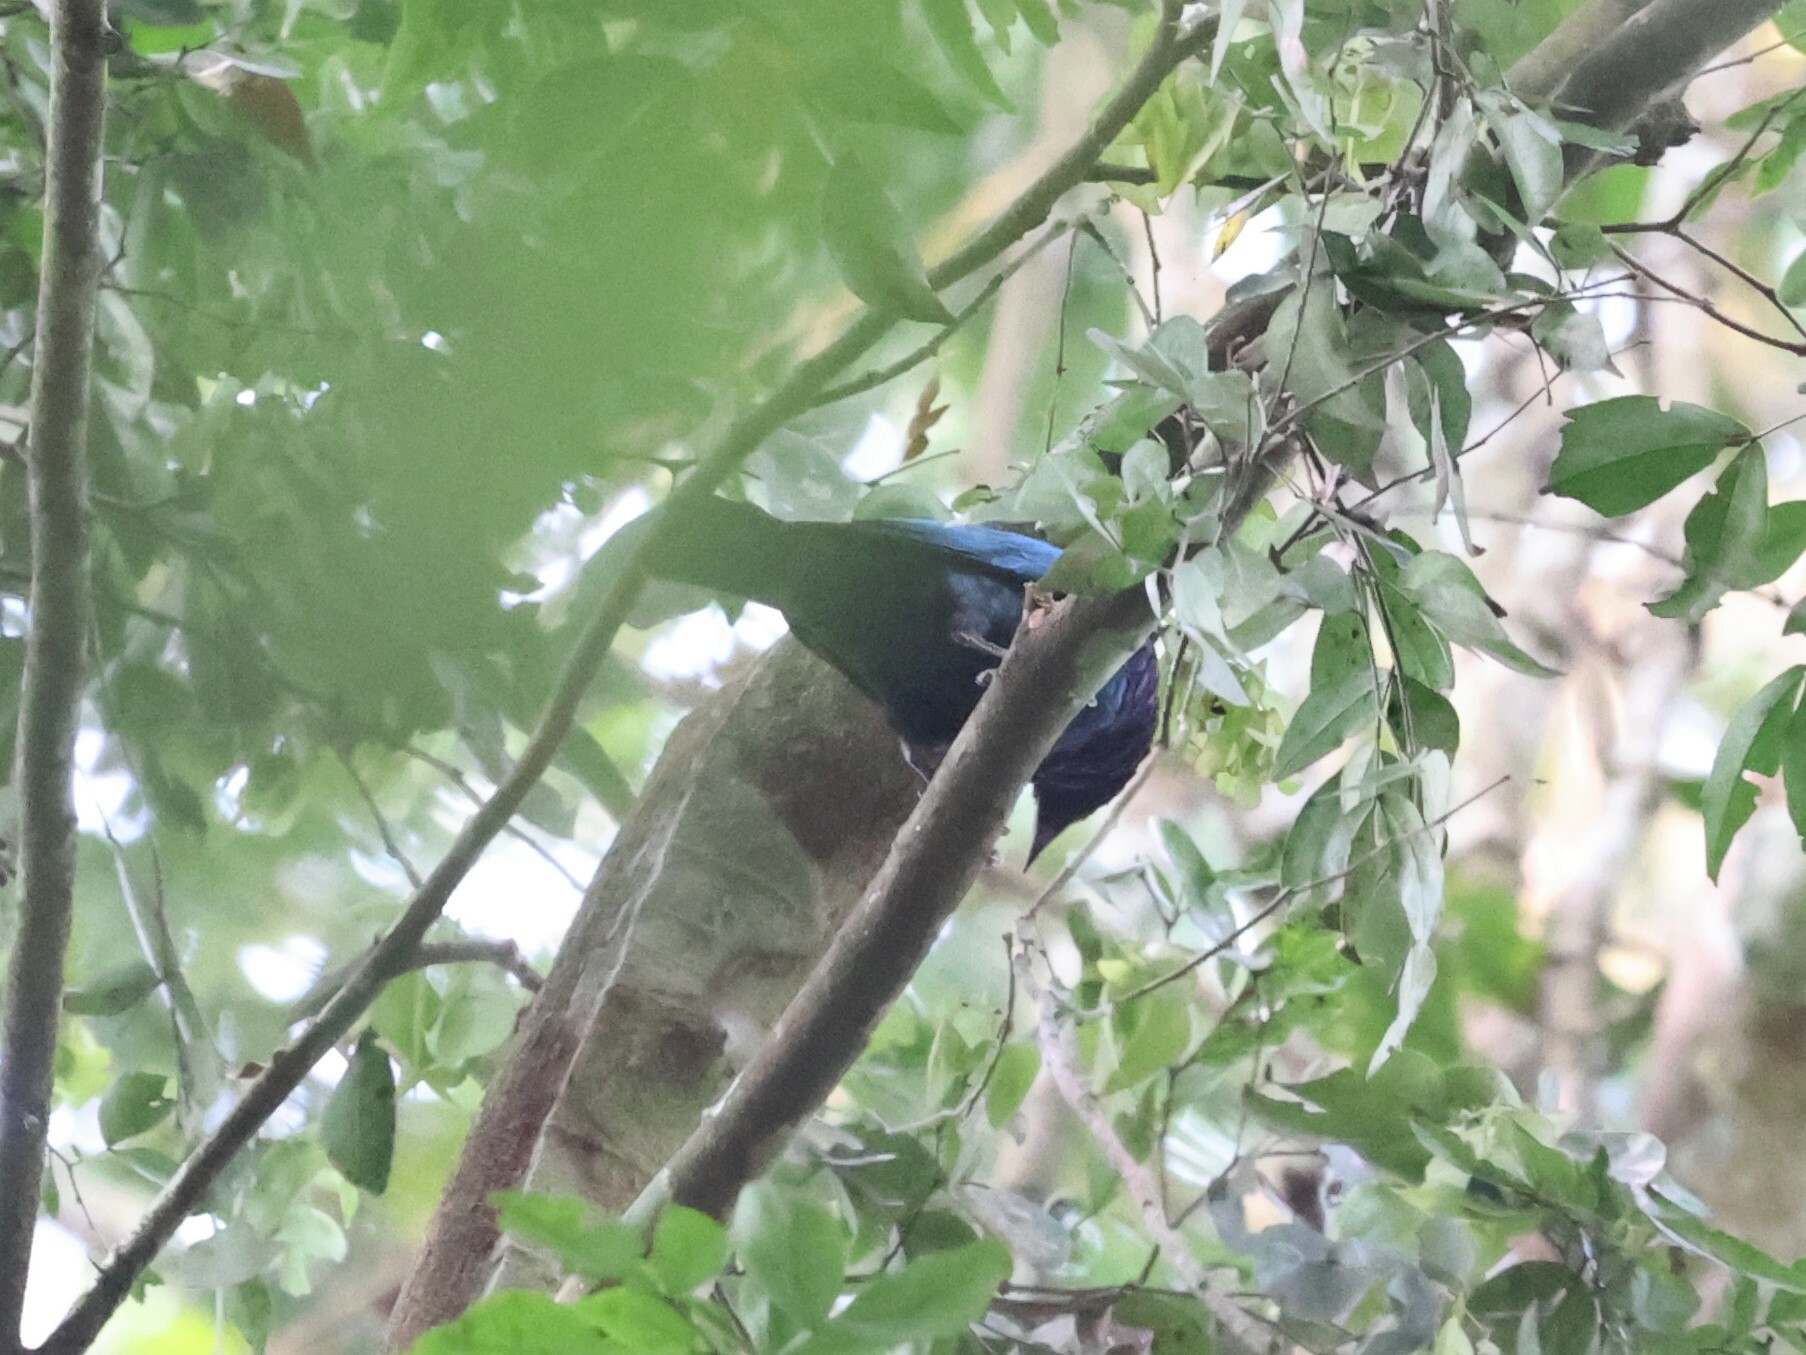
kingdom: Animalia
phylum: Chordata
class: Aves
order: Passeriformes
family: Sturnidae
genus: Hylopsar
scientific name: Hylopsar purpureiceps
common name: Purple-headed starling
